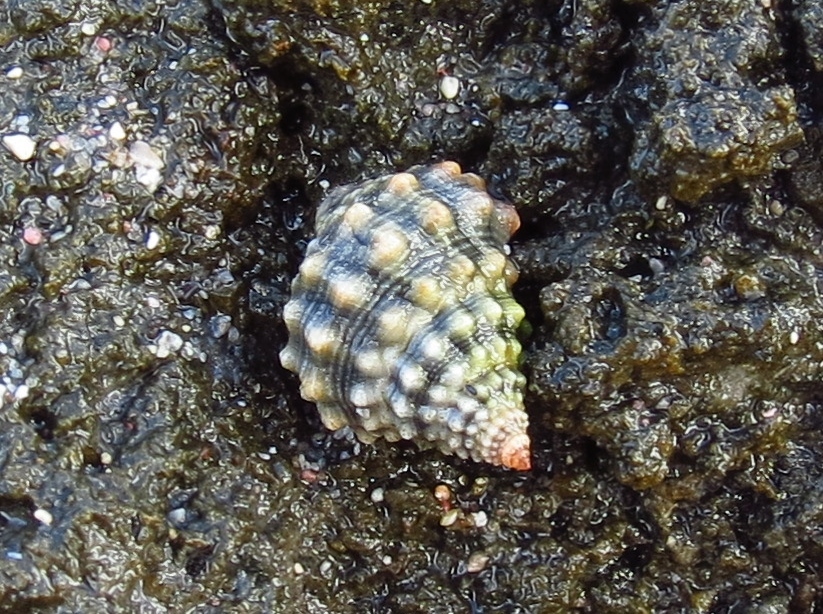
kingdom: Animalia
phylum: Mollusca
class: Gastropoda
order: Littorinimorpha
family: Littorinidae
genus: Echinolittorina
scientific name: Echinolittorina tuberculata
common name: Common periwinkle
